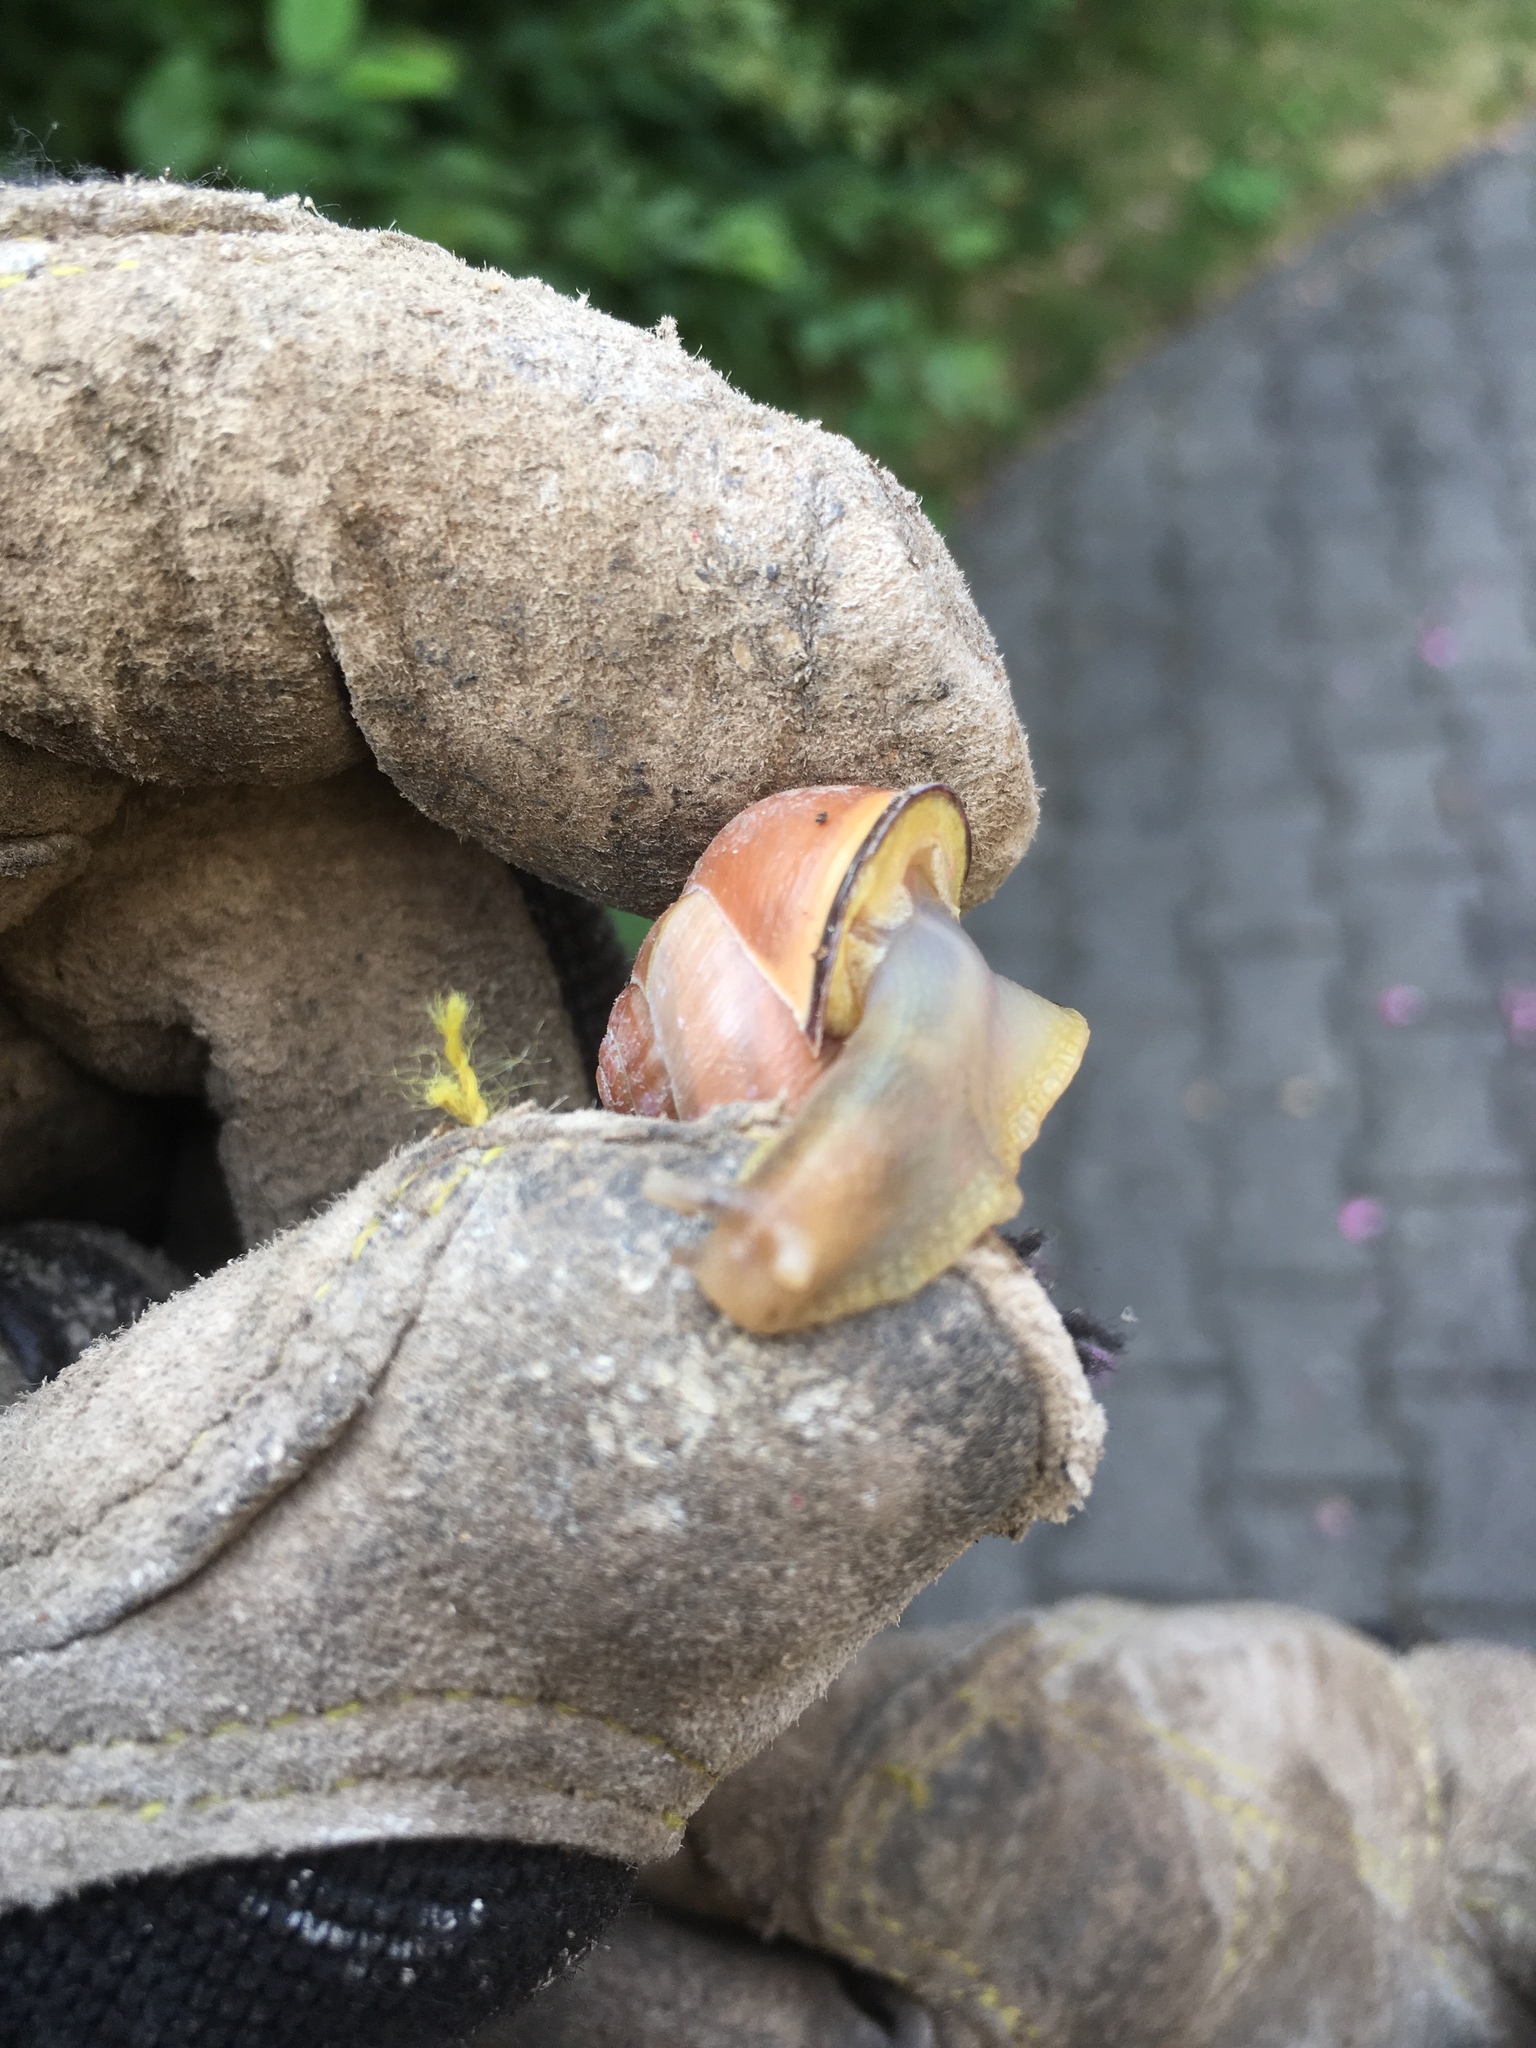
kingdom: Animalia
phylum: Mollusca
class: Gastropoda
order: Stylommatophora
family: Helicidae
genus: Cepaea
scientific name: Cepaea nemoralis
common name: Grovesnail
